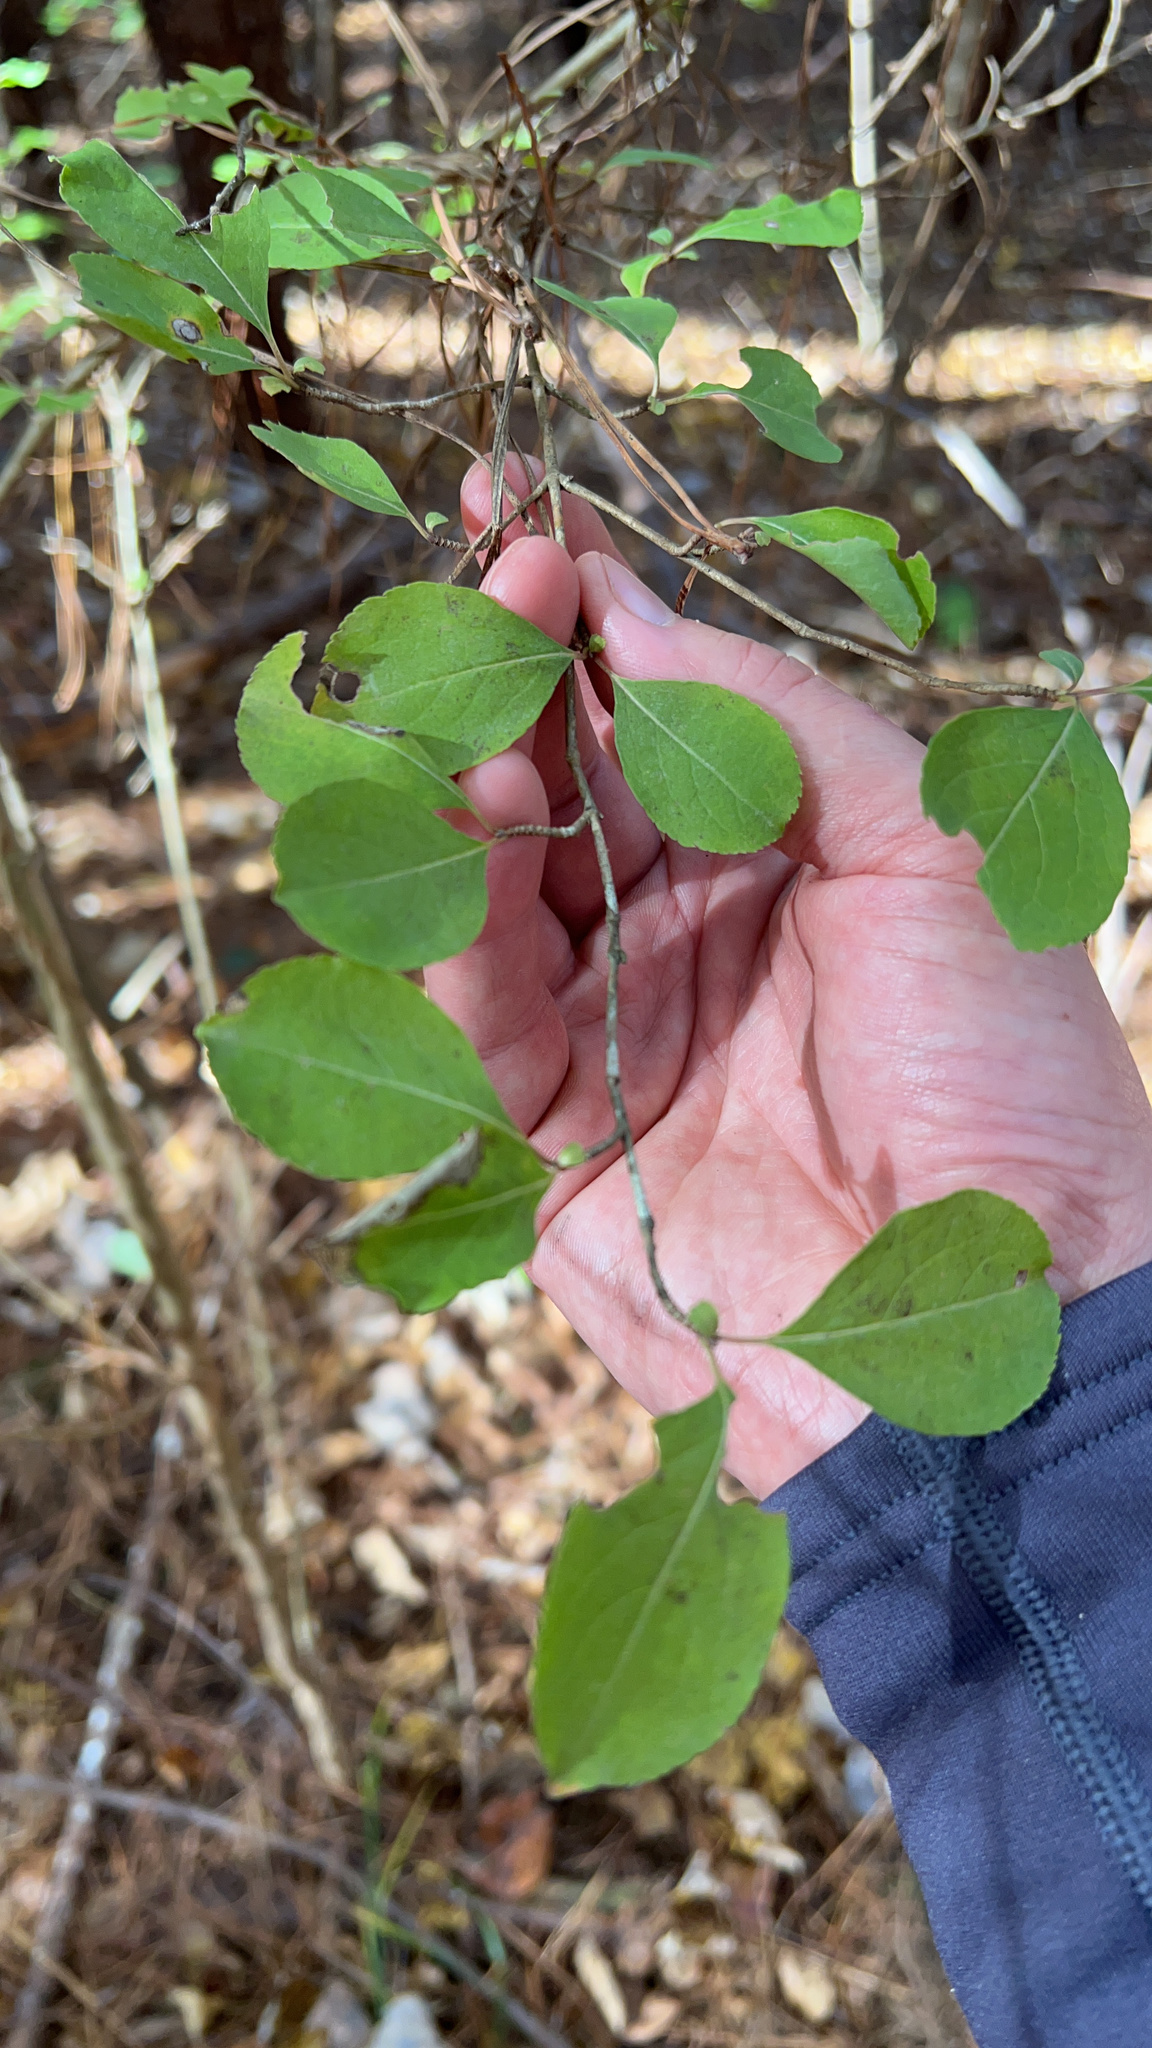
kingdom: Plantae
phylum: Tracheophyta
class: Magnoliopsida
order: Dipsacales
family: Viburnaceae
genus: Viburnum
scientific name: Viburnum prunifolium
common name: Black haw
